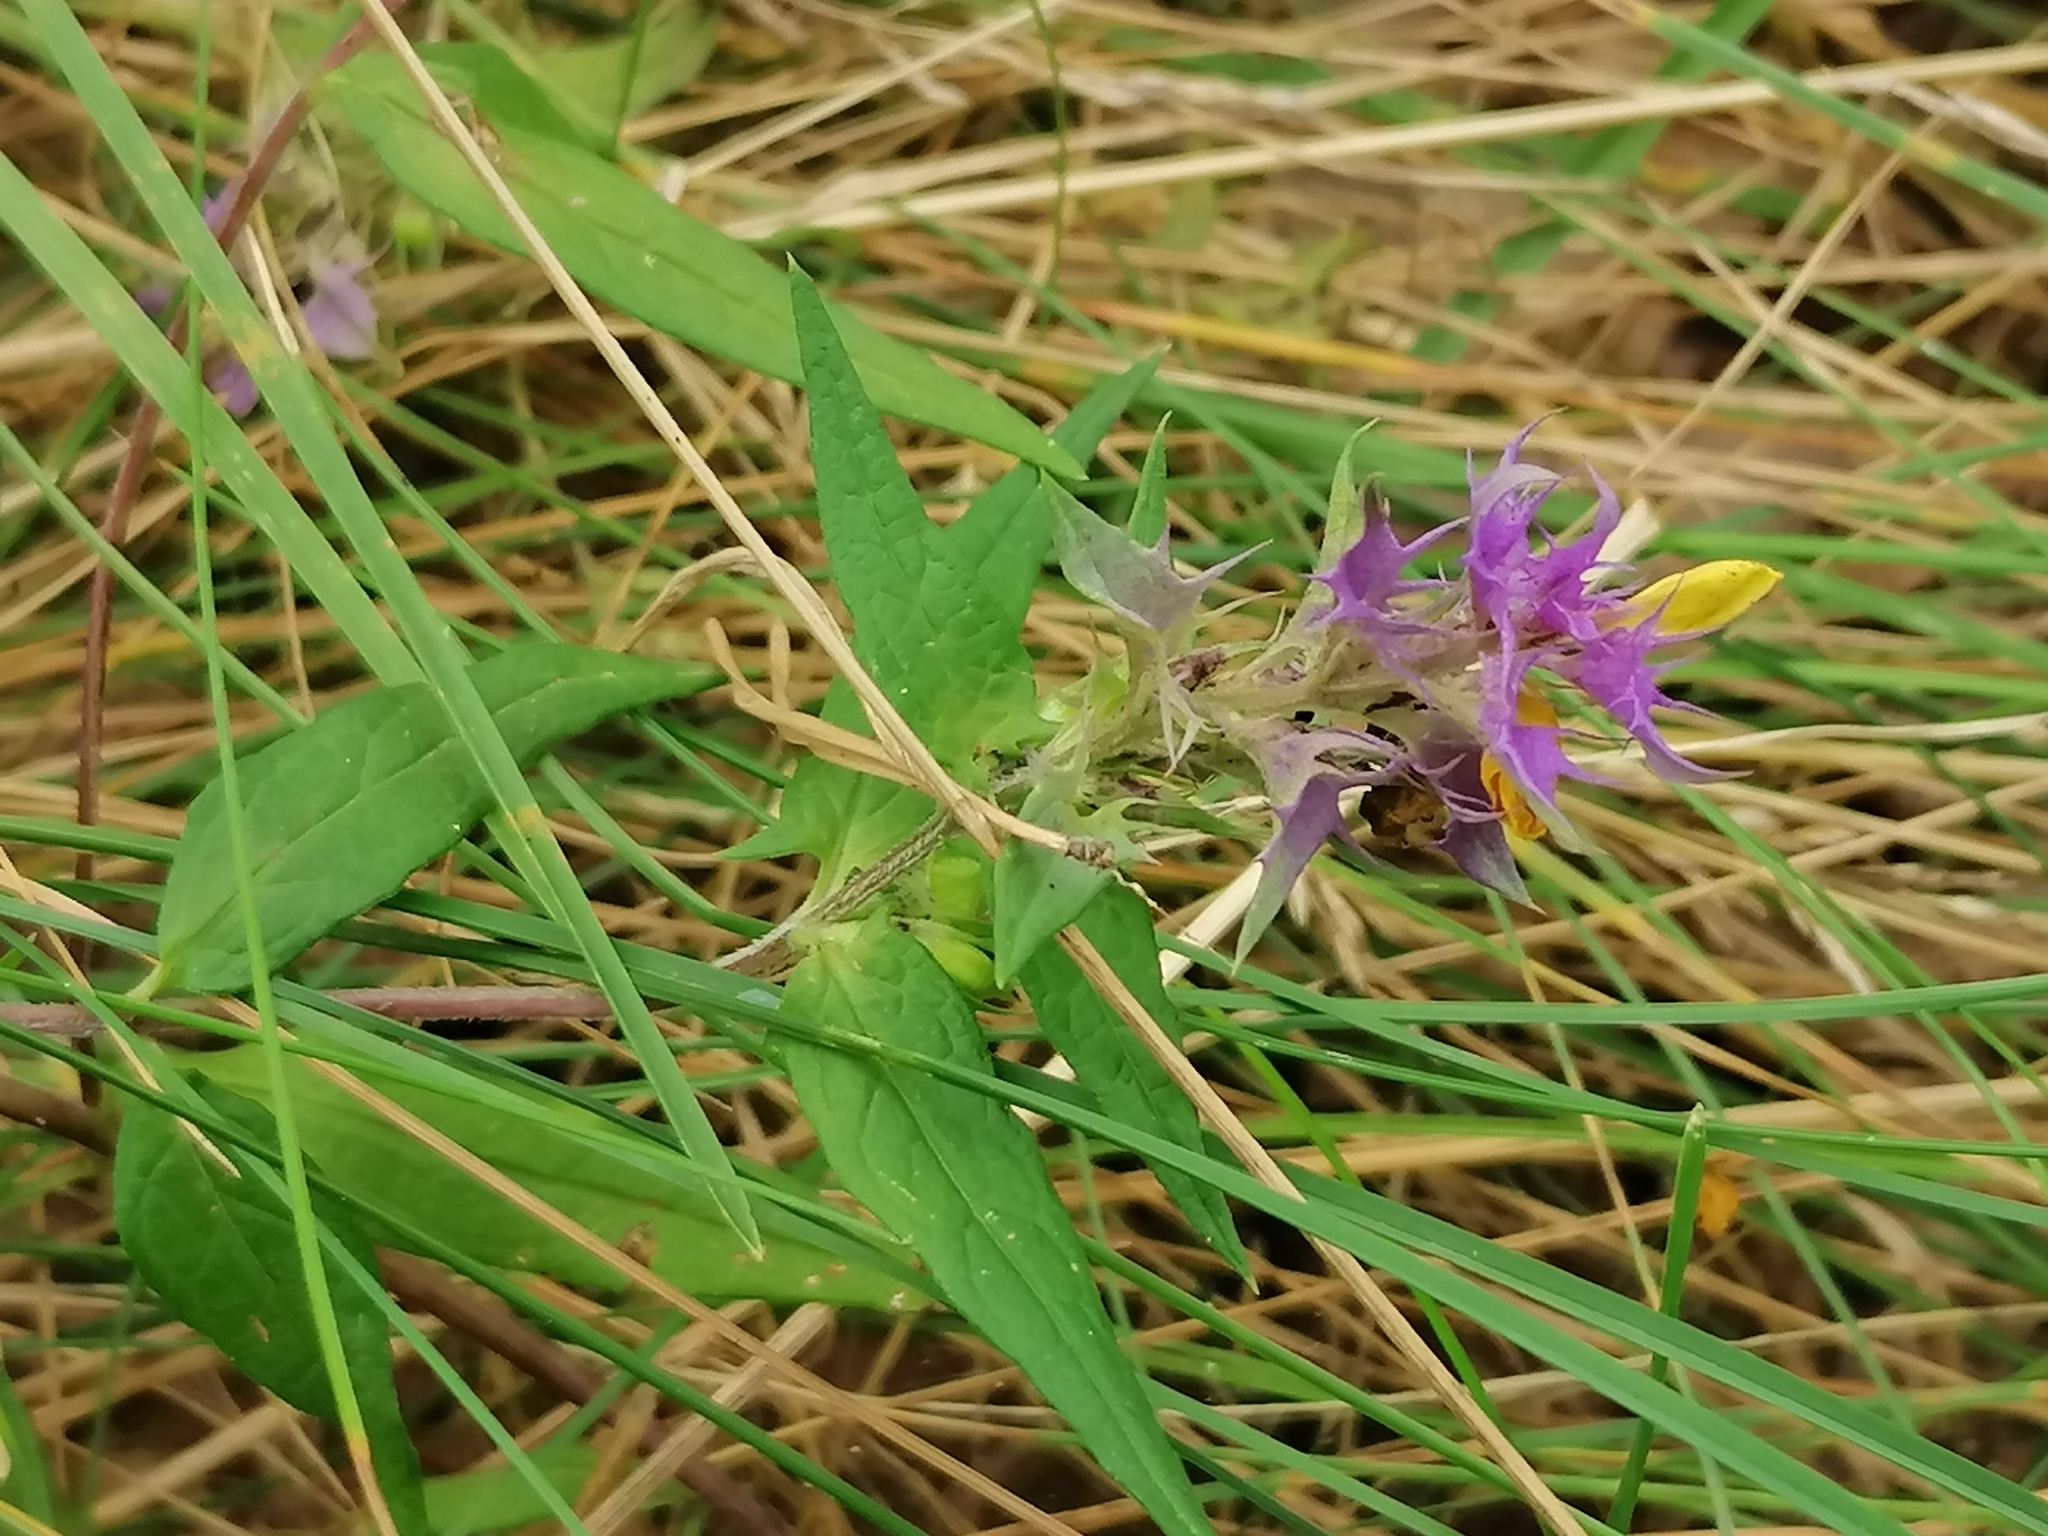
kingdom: Plantae
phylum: Tracheophyta
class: Magnoliopsida
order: Lamiales
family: Orobanchaceae
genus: Melampyrum
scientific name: Melampyrum nemorosum
